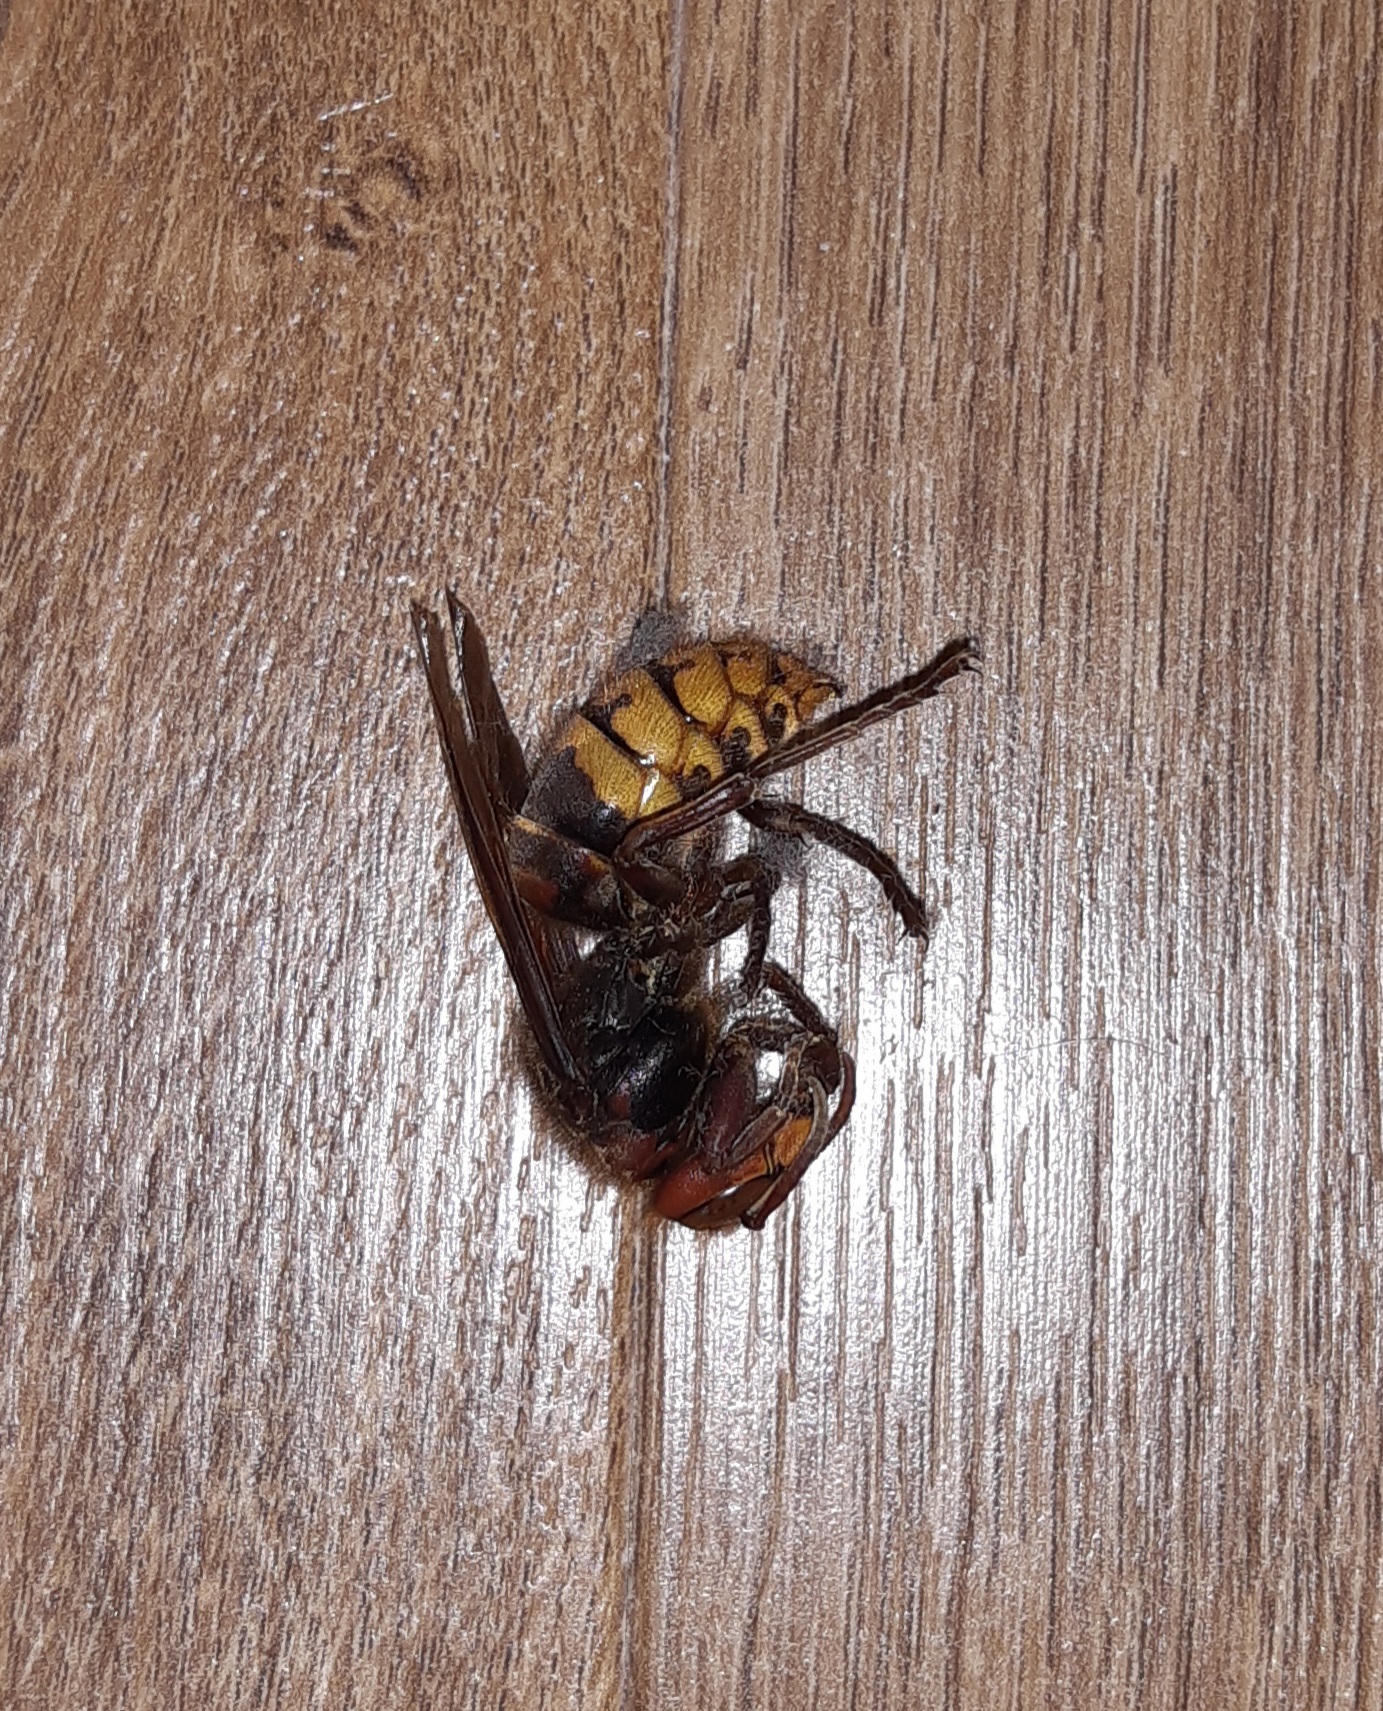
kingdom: Animalia
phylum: Arthropoda
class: Insecta
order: Hymenoptera
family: Vespidae
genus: Vespa
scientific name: Vespa crabro
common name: Hornet
